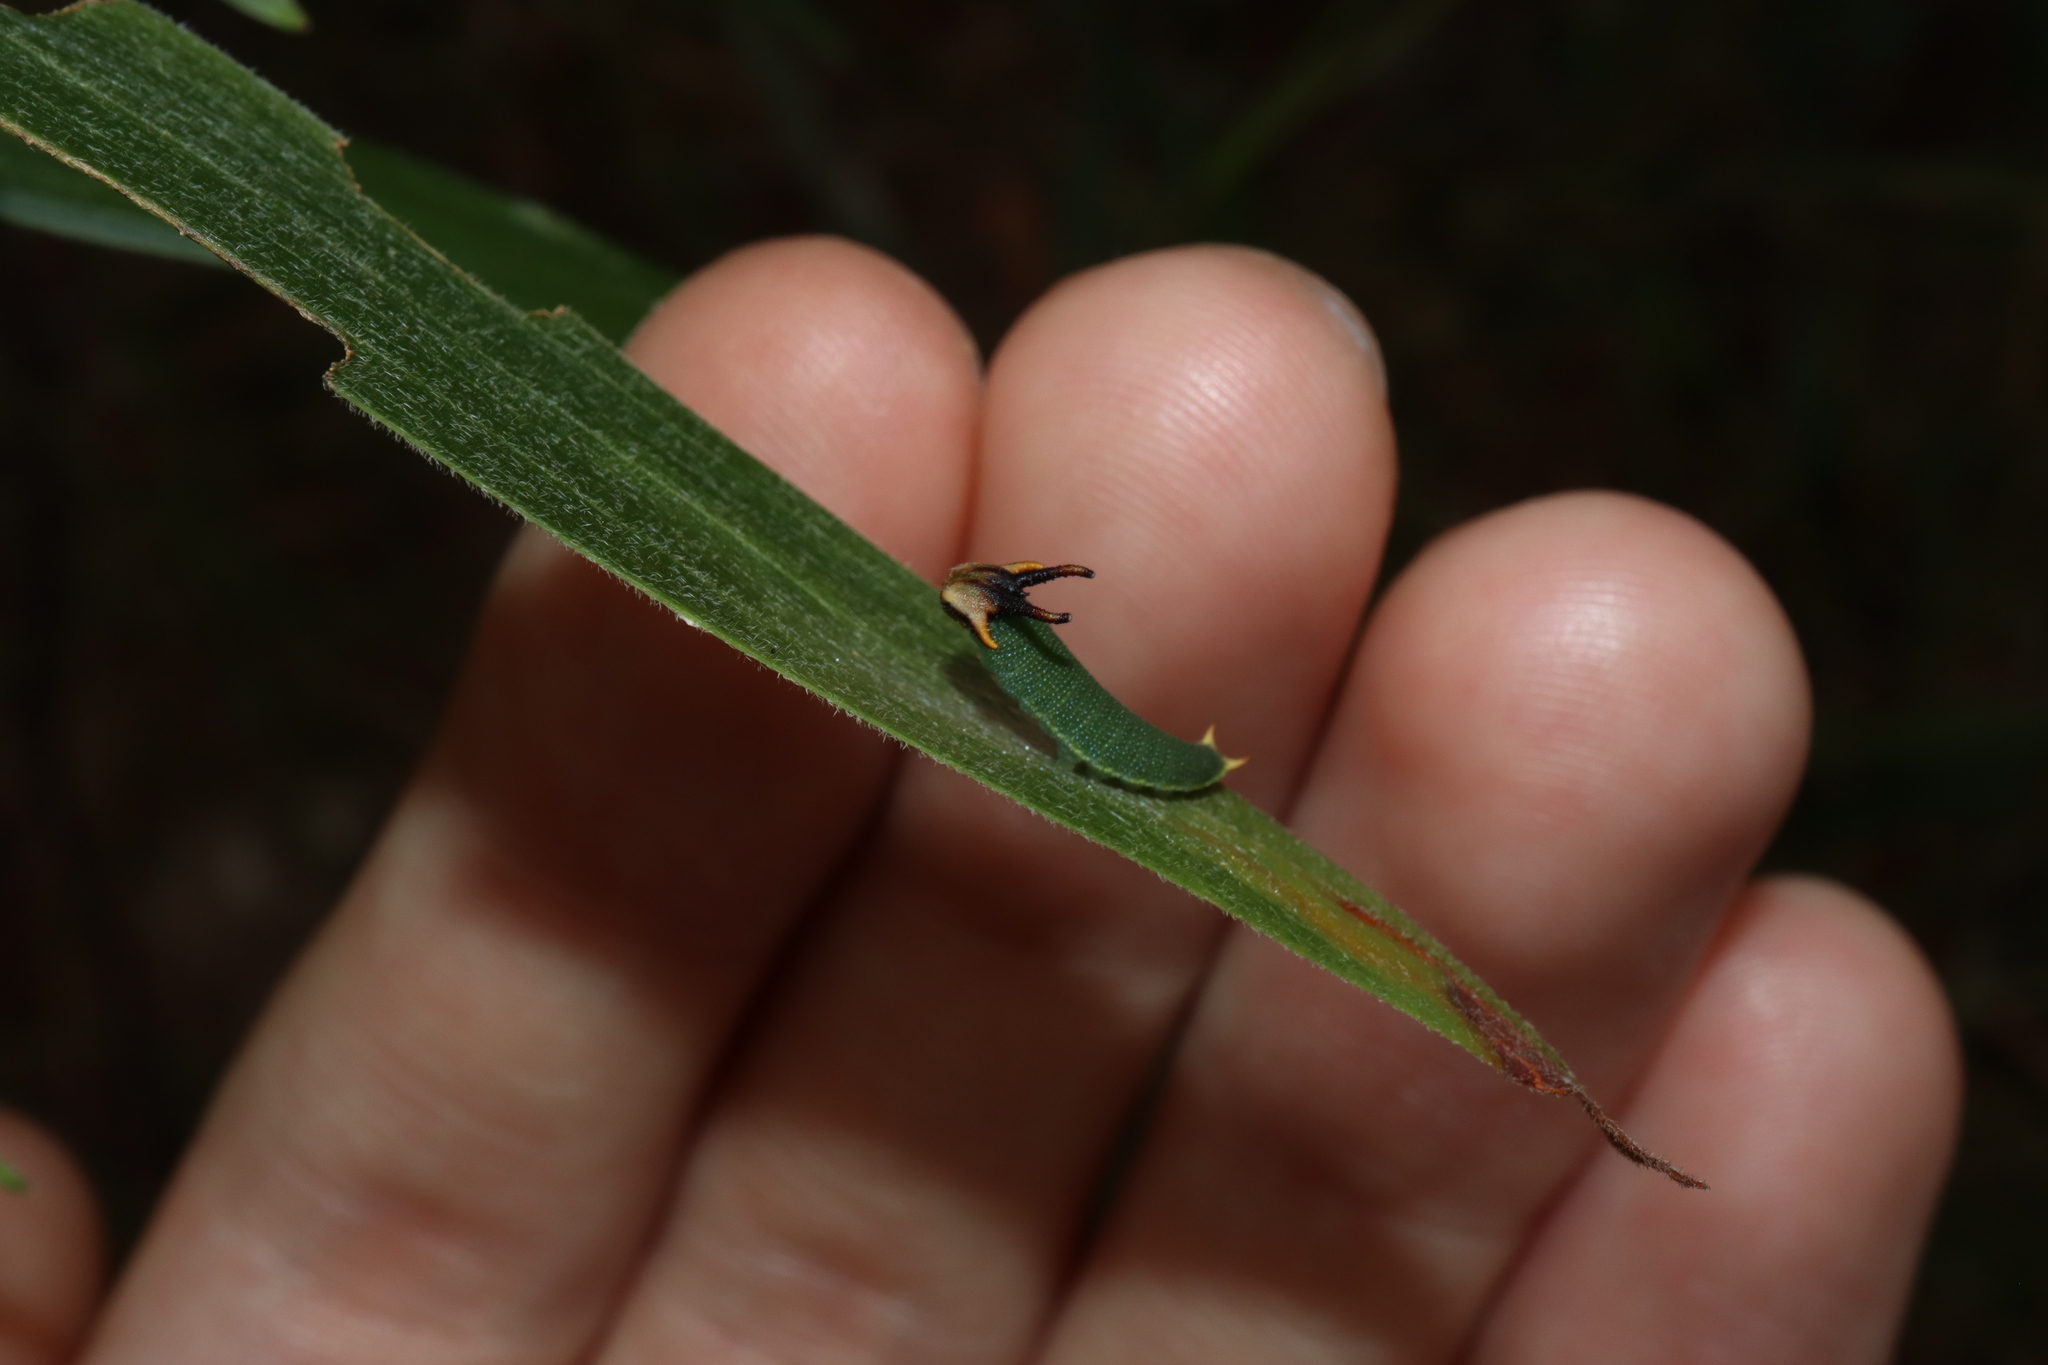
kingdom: Animalia
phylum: Arthropoda
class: Insecta
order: Lepidoptera
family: Nymphalidae
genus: Charaxes
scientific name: Charaxes
